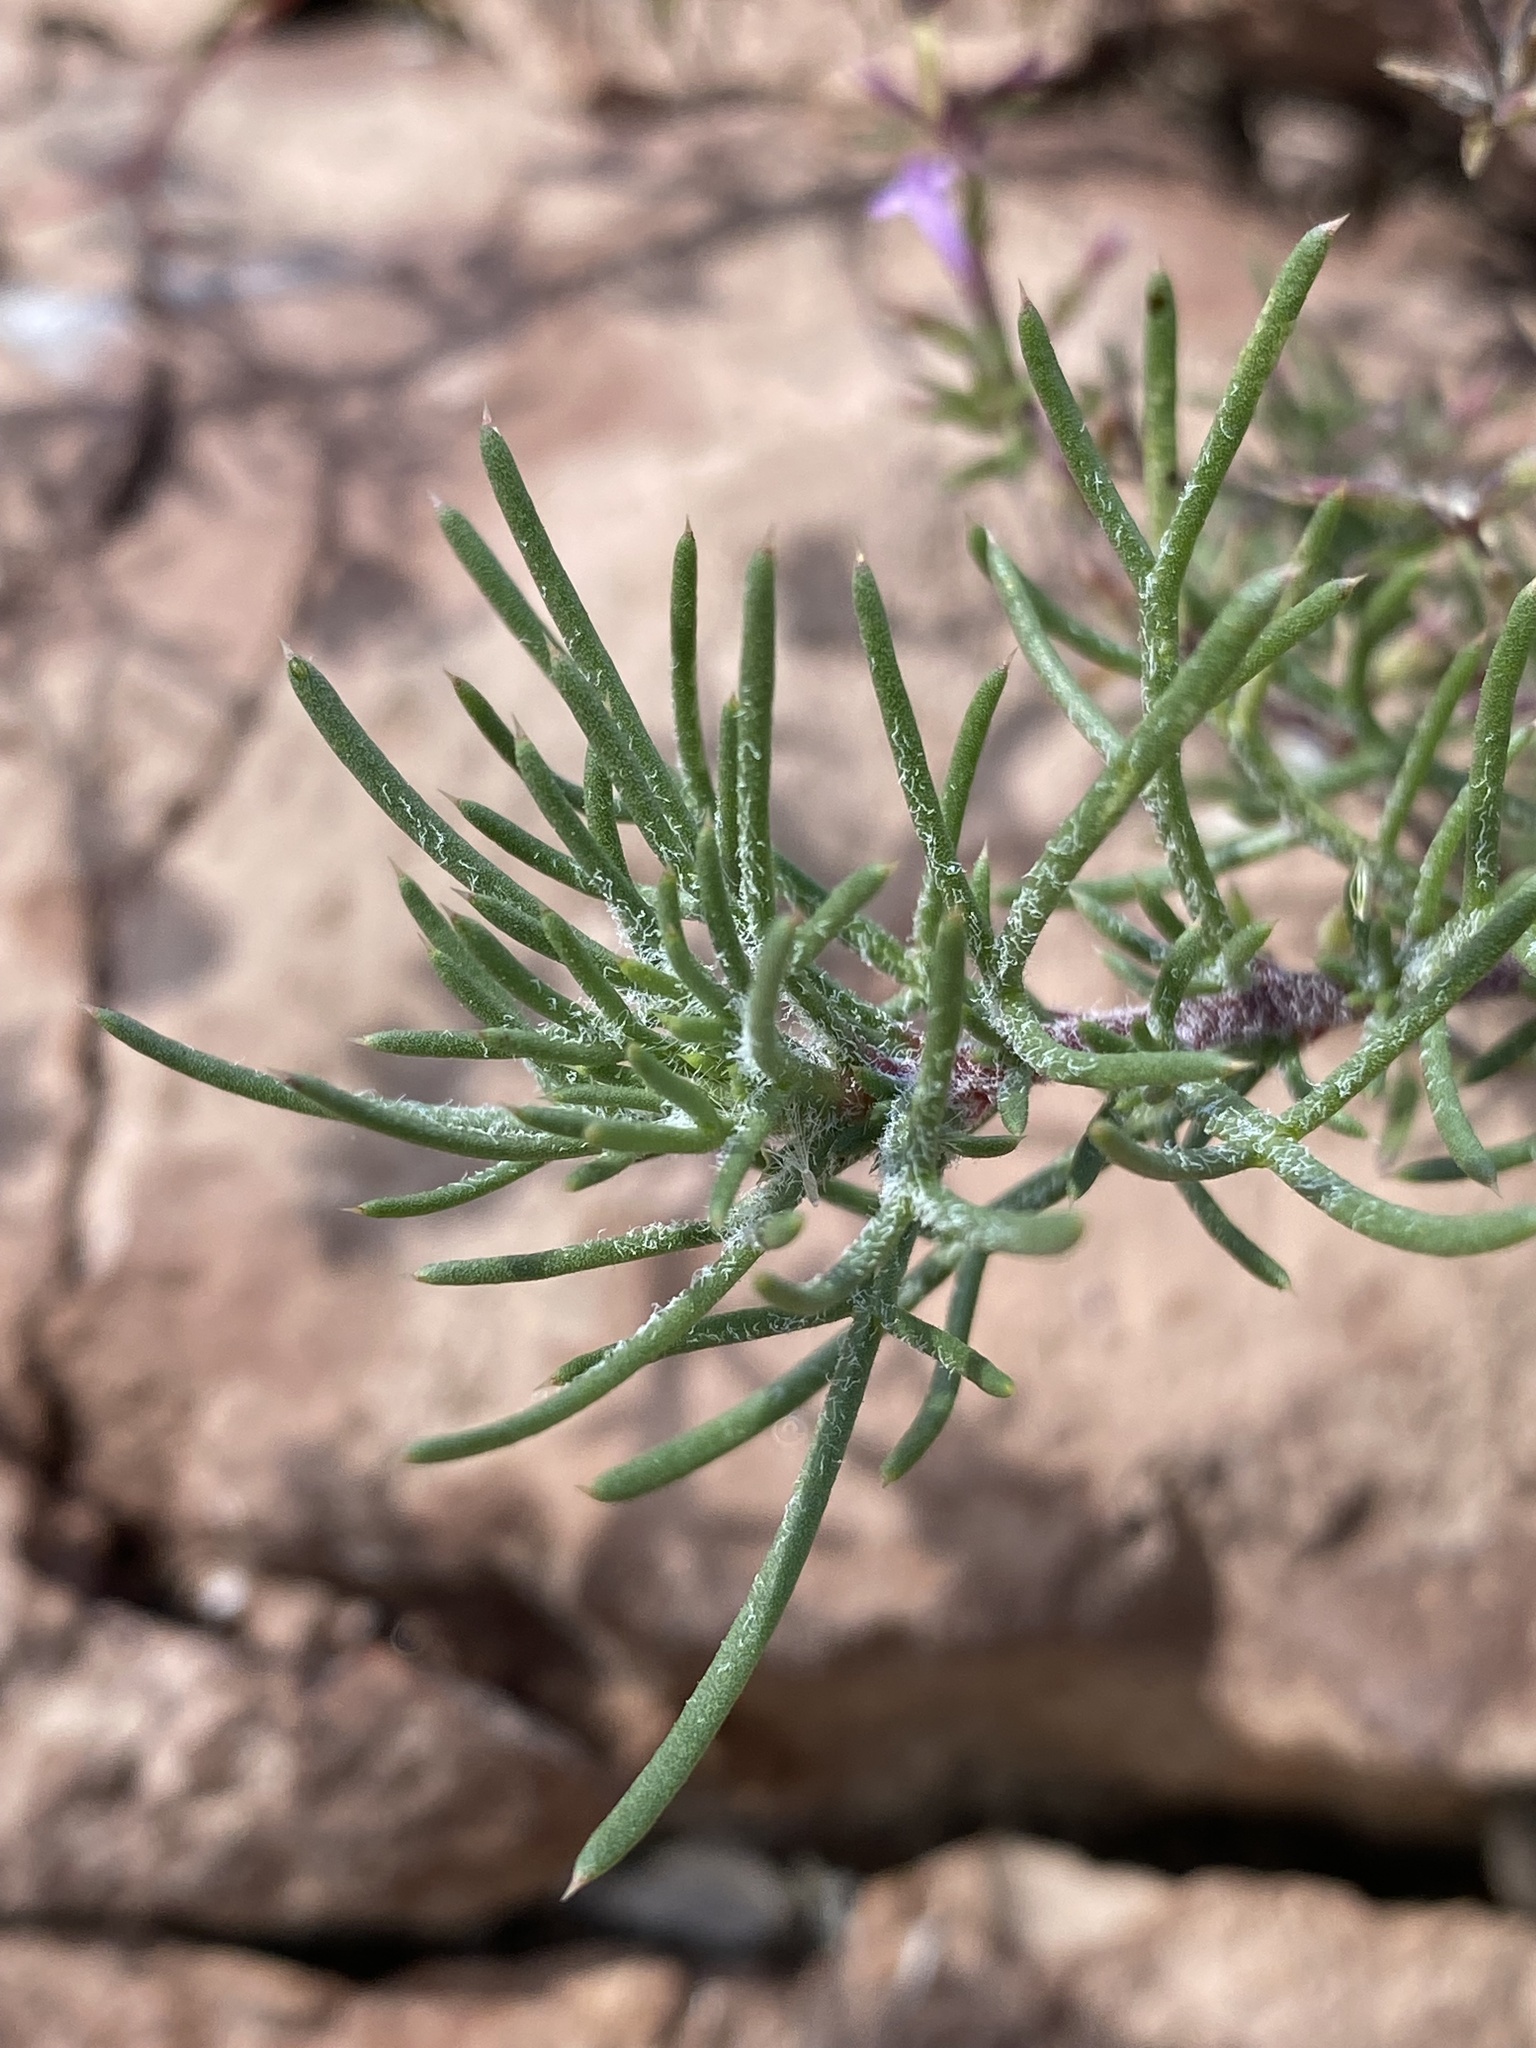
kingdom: Plantae
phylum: Tracheophyta
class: Magnoliopsida
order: Ericales
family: Polemoniaceae
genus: Ipomopsis
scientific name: Ipomopsis multiflora
